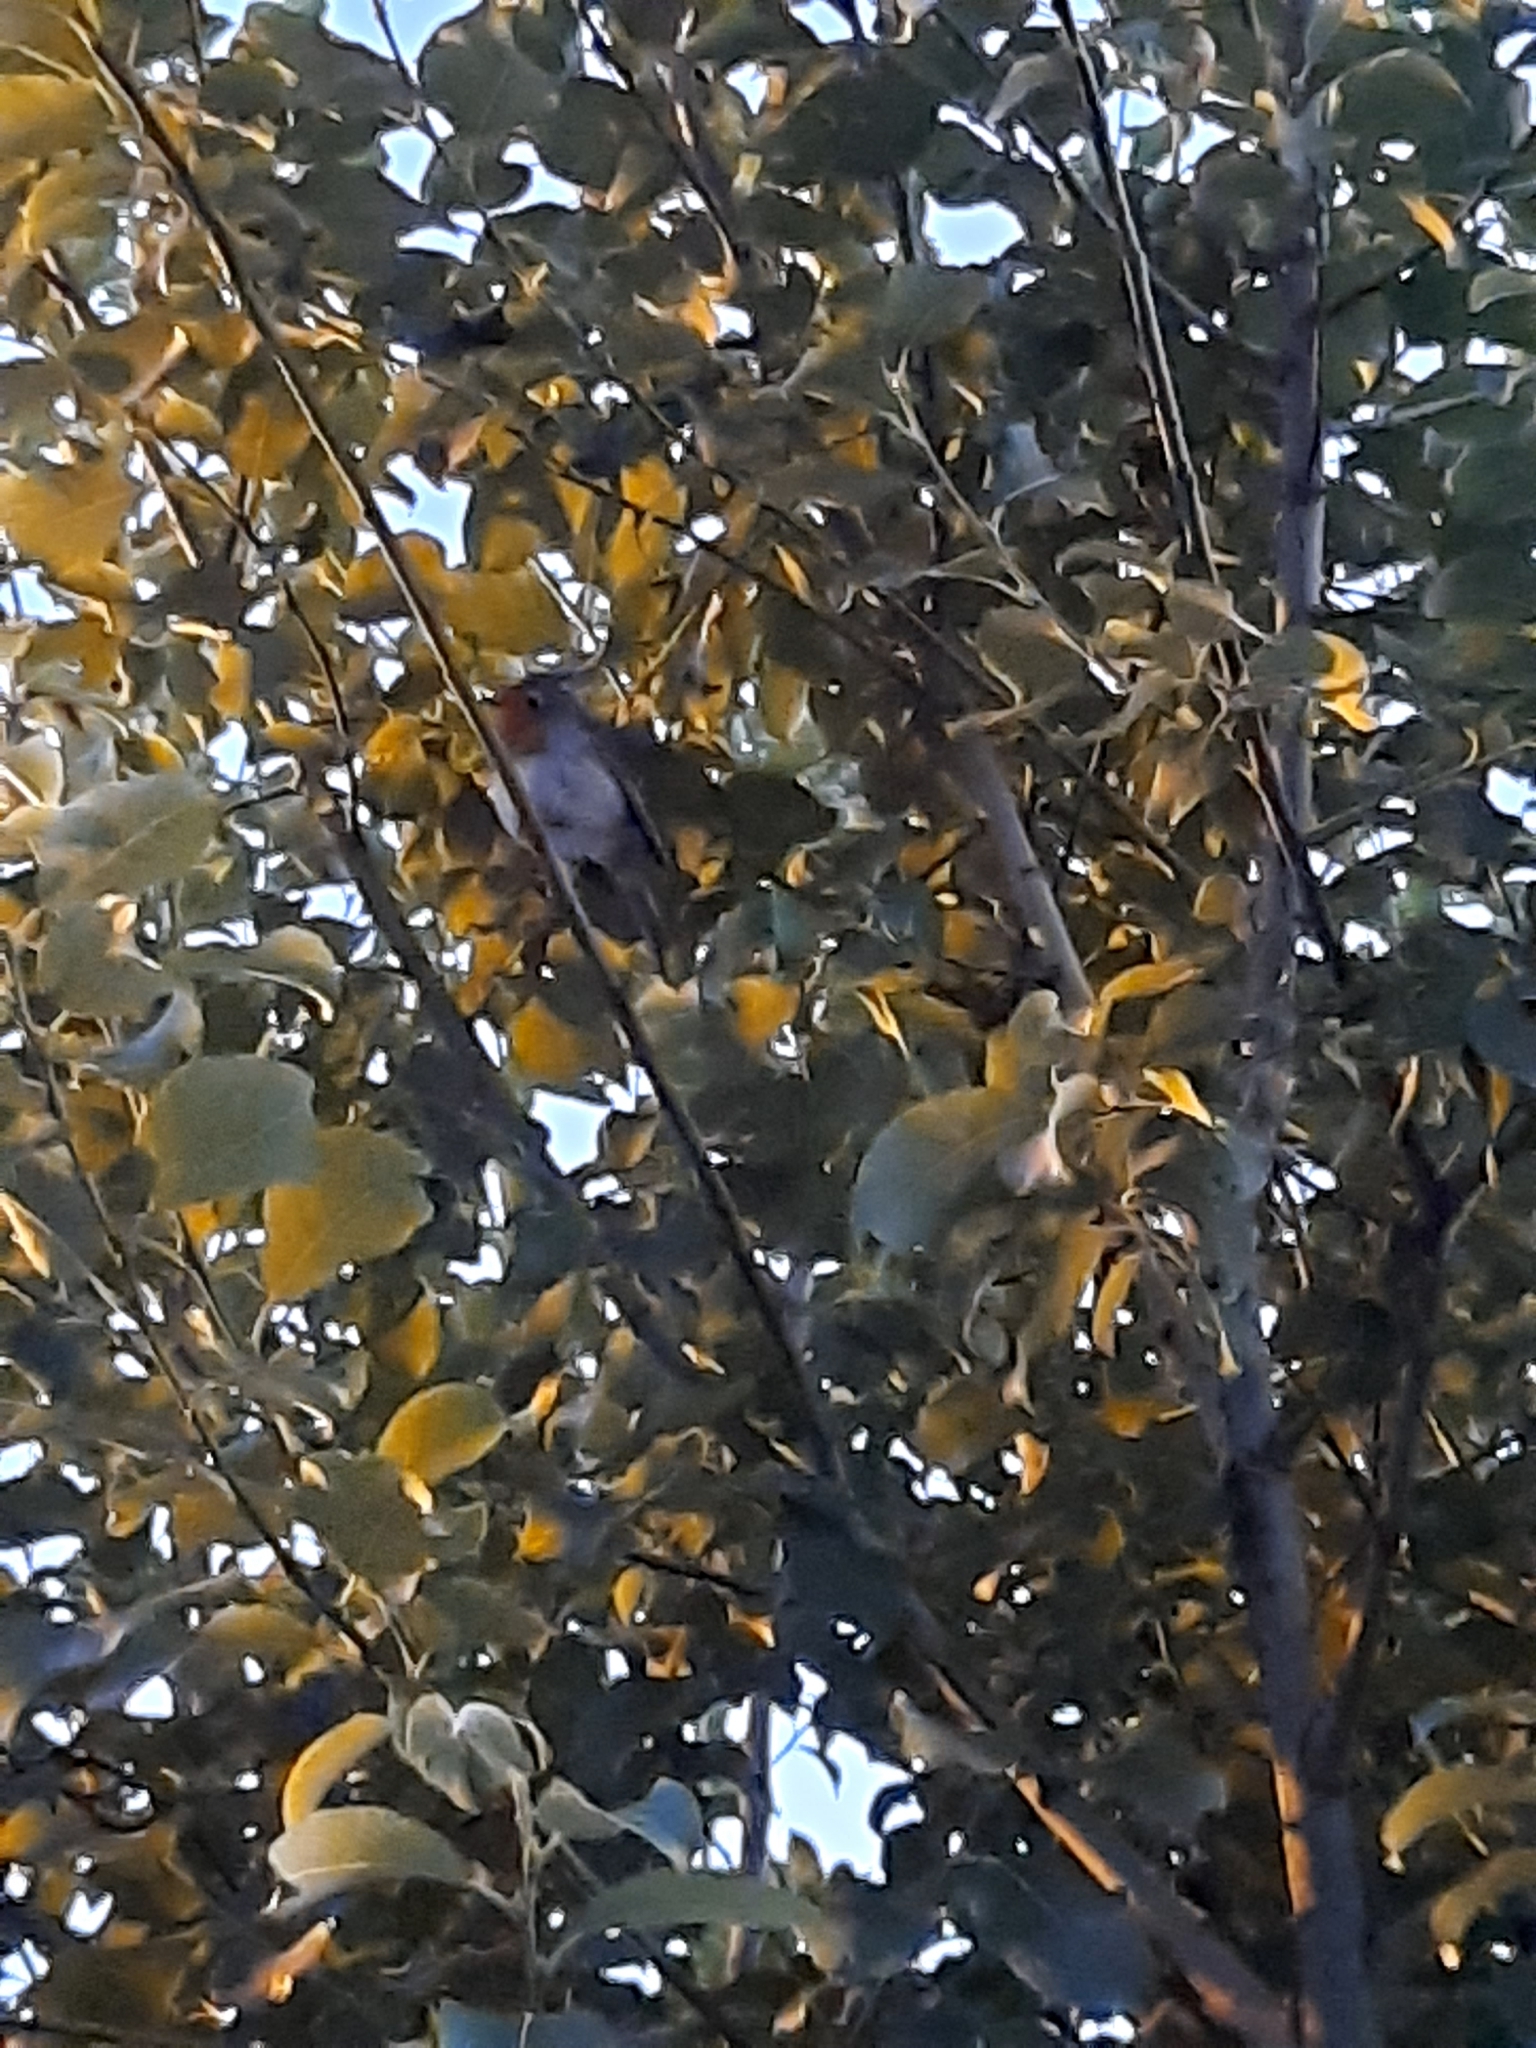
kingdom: Animalia
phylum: Chordata
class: Aves
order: Passeriformes
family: Muscicapidae
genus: Erithacus
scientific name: Erithacus rubecula
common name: European robin
